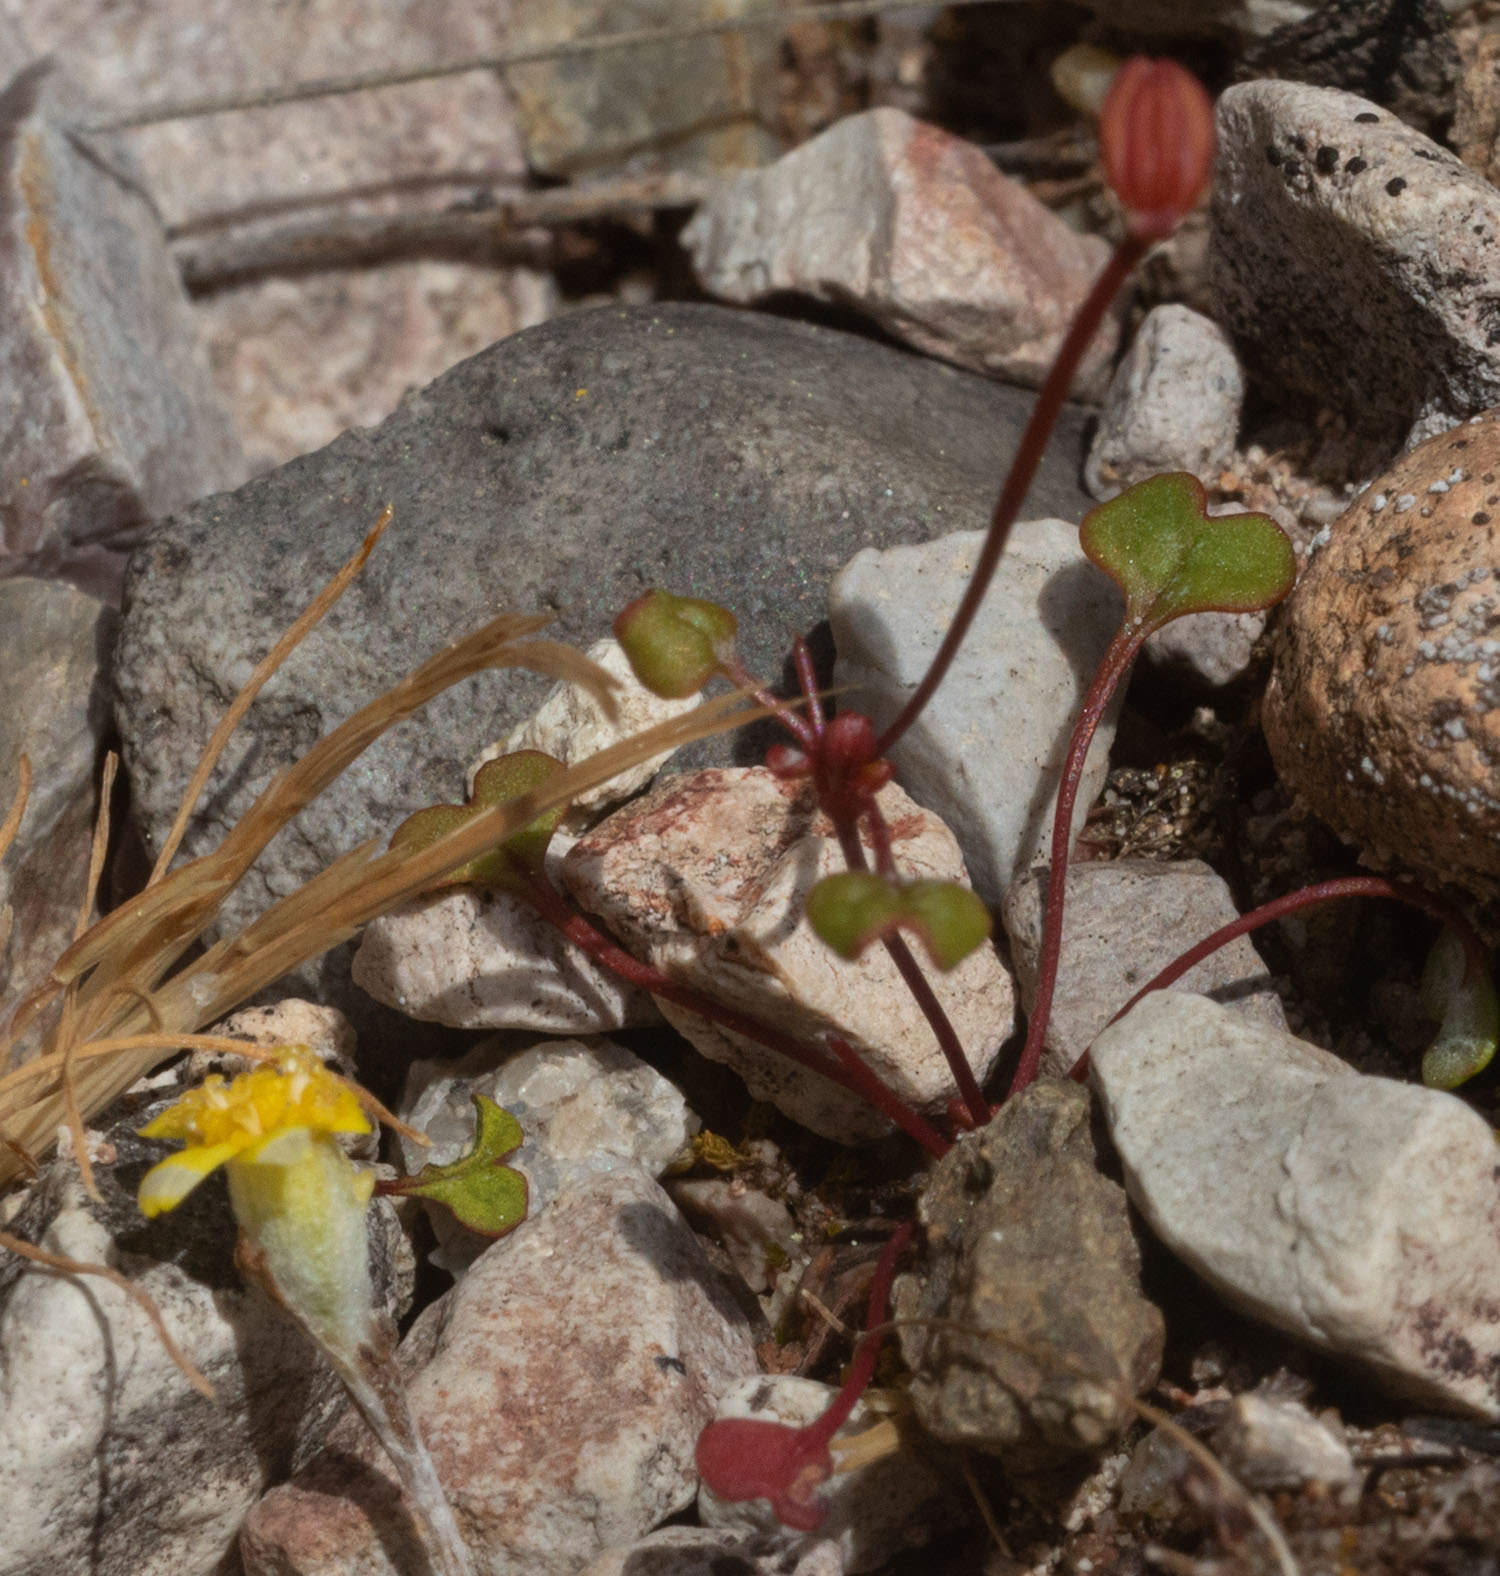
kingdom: Plantae
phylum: Tracheophyta
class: Magnoliopsida
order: Caryophyllales
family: Polygonaceae
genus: Eriogonum
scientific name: Eriogonum nortonii
